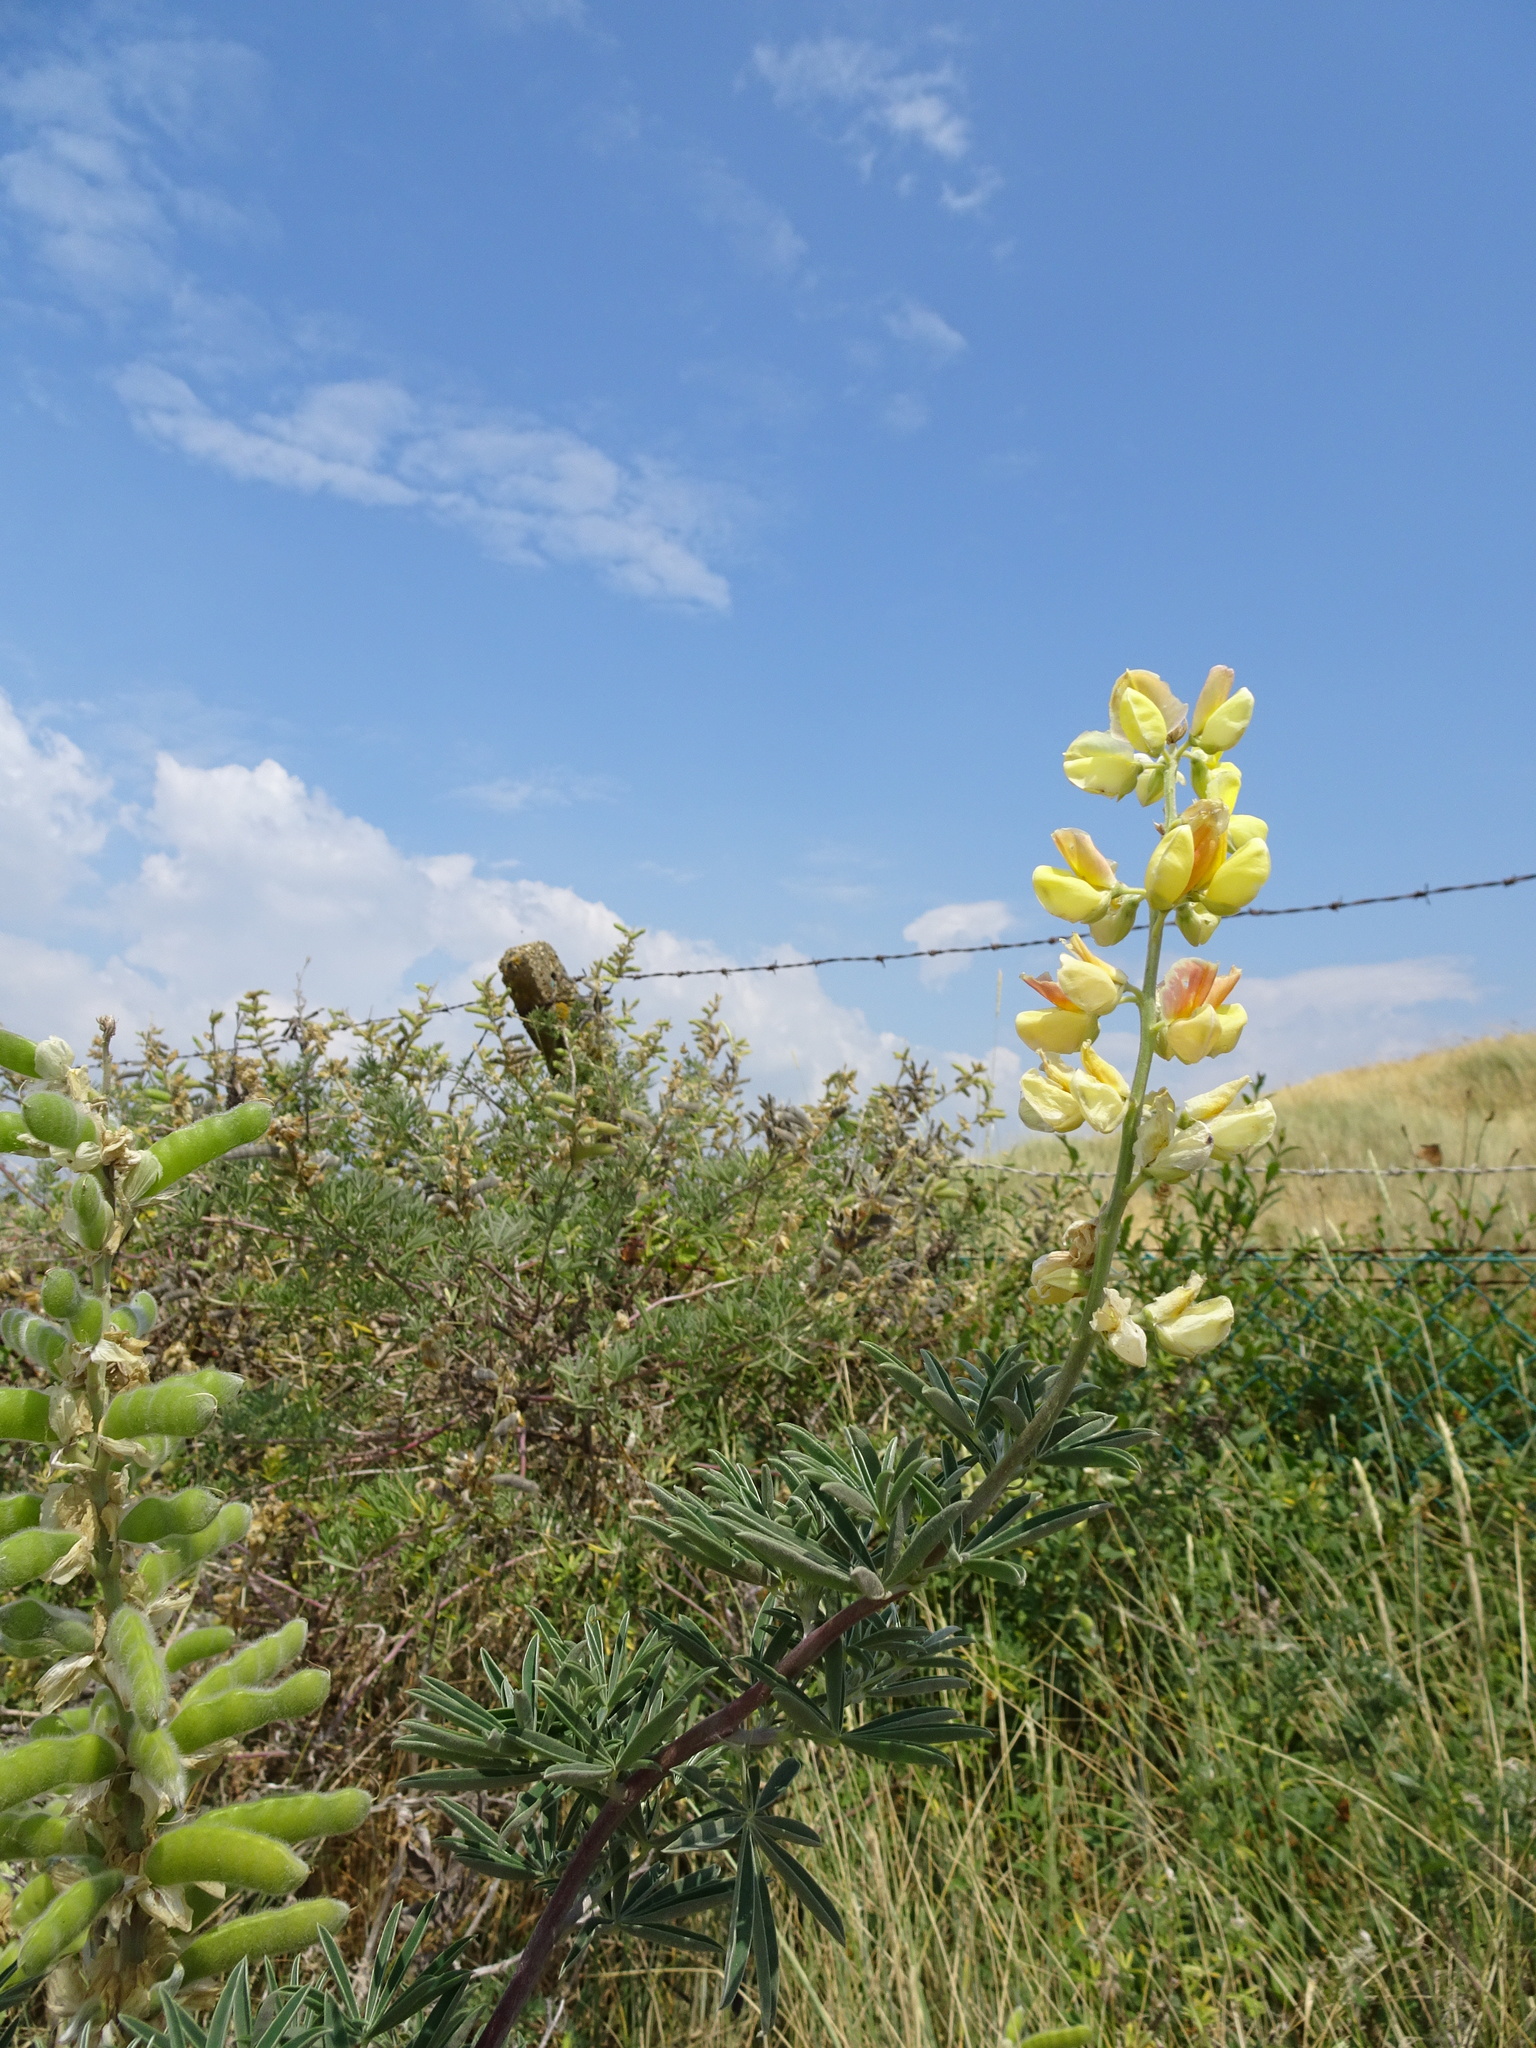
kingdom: Plantae
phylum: Tracheophyta
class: Magnoliopsida
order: Fabales
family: Fabaceae
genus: Lupinus
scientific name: Lupinus arboreus
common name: Yellow bush lupine
